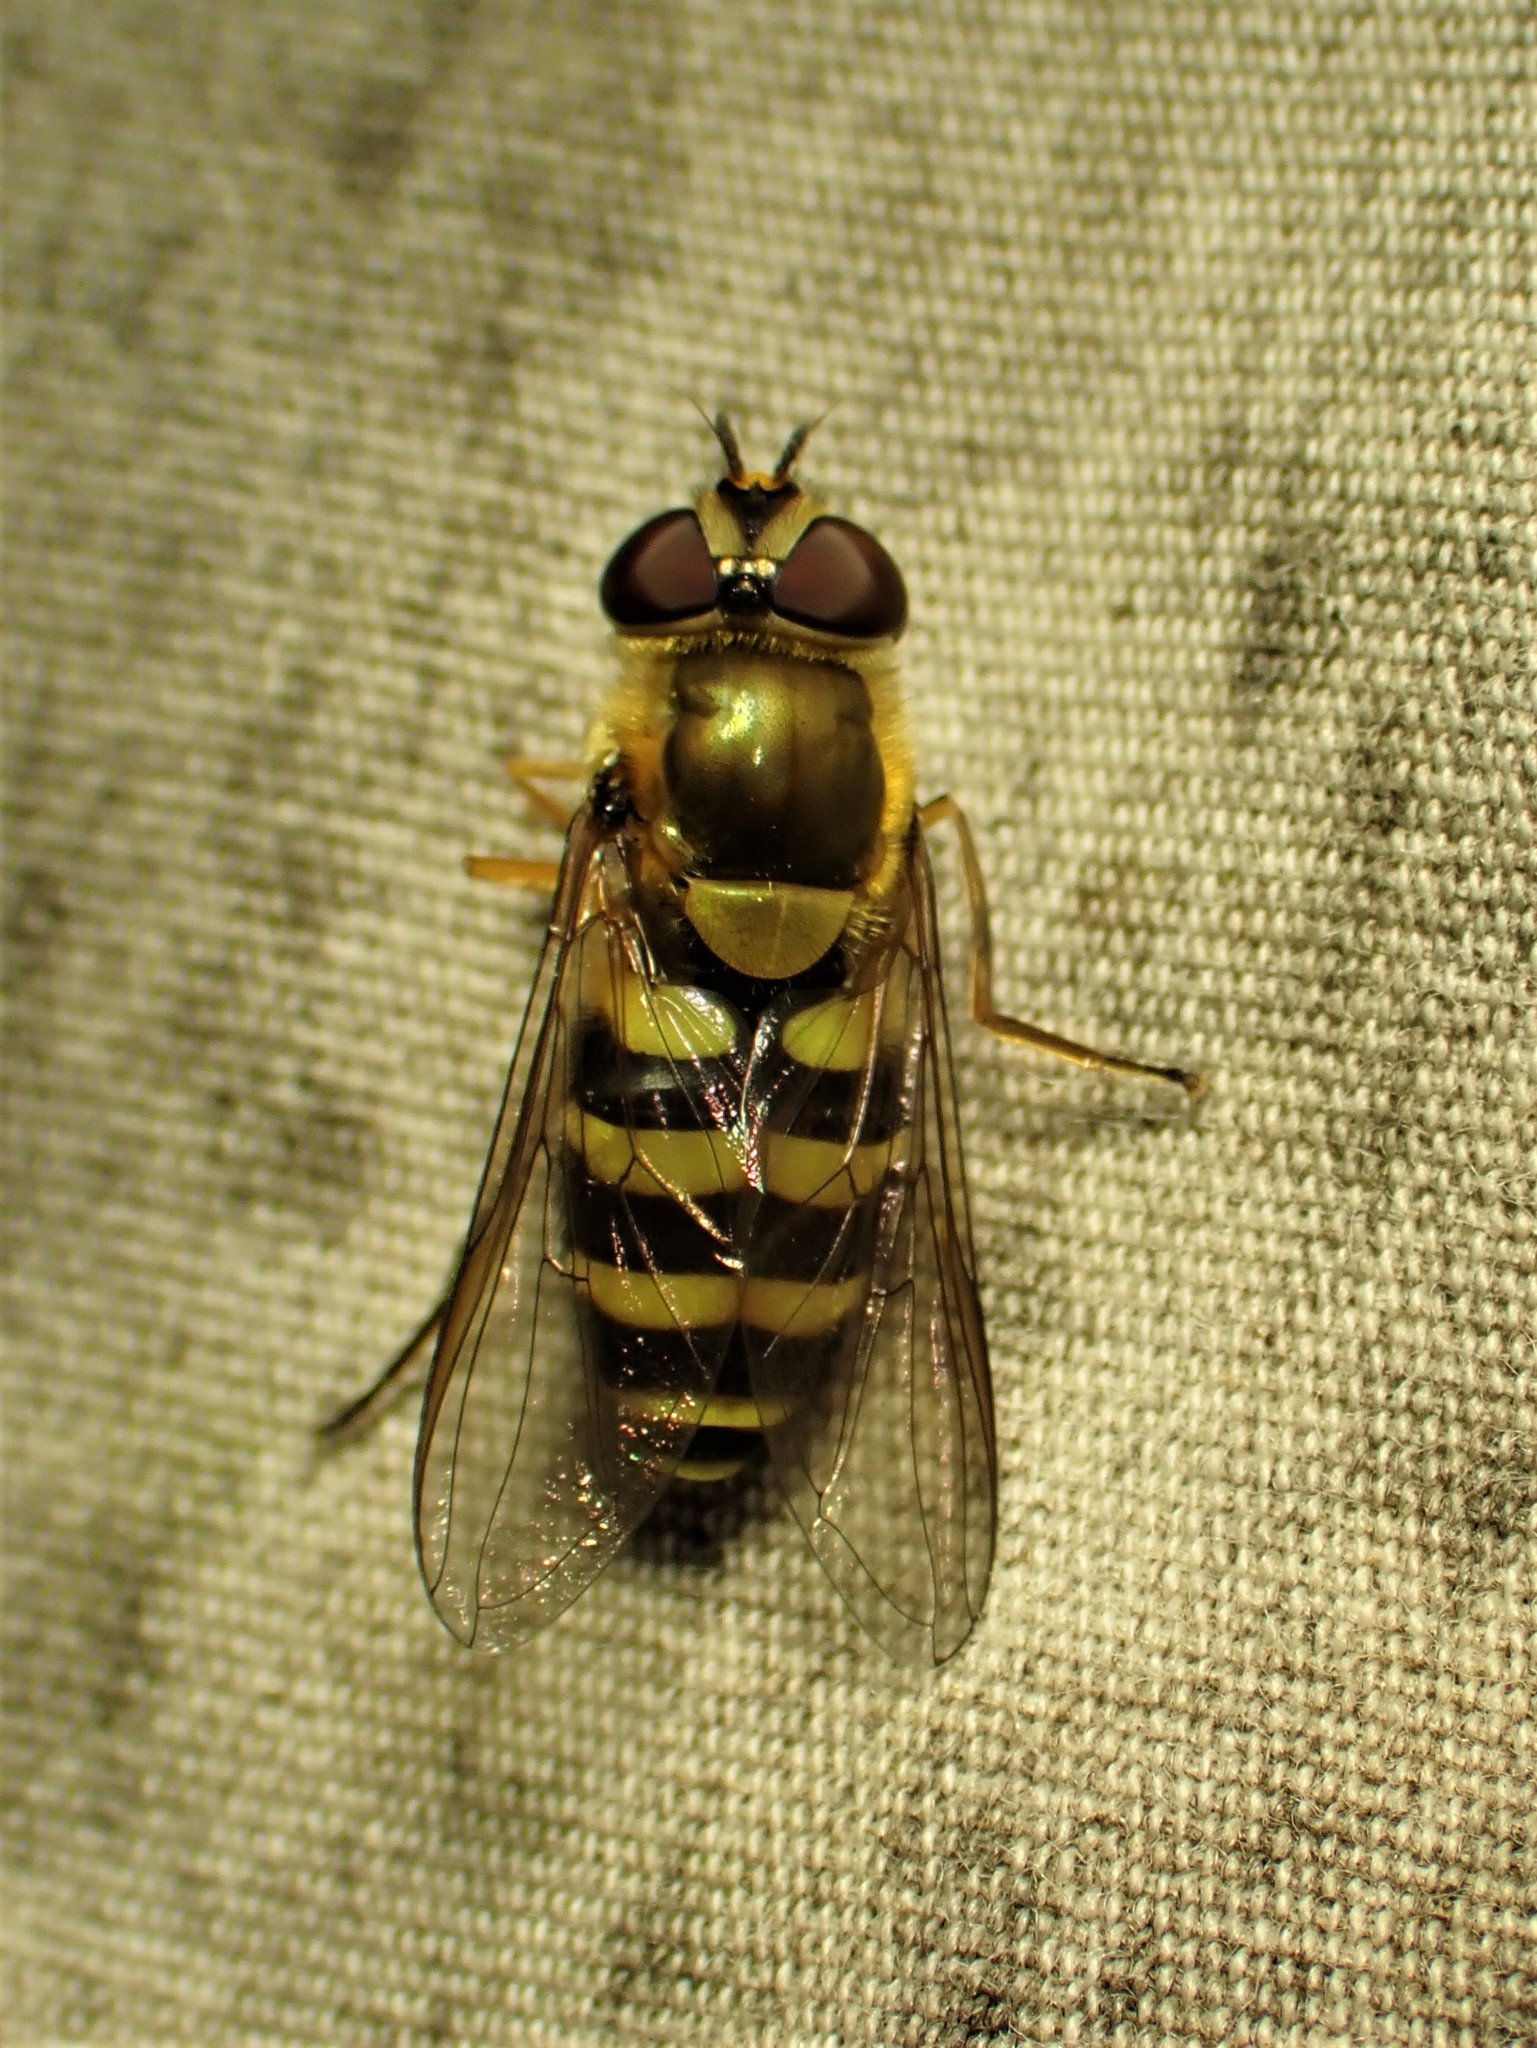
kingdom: Animalia
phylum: Arthropoda
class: Insecta
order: Diptera
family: Syrphidae
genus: Syrphus
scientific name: Syrphus
